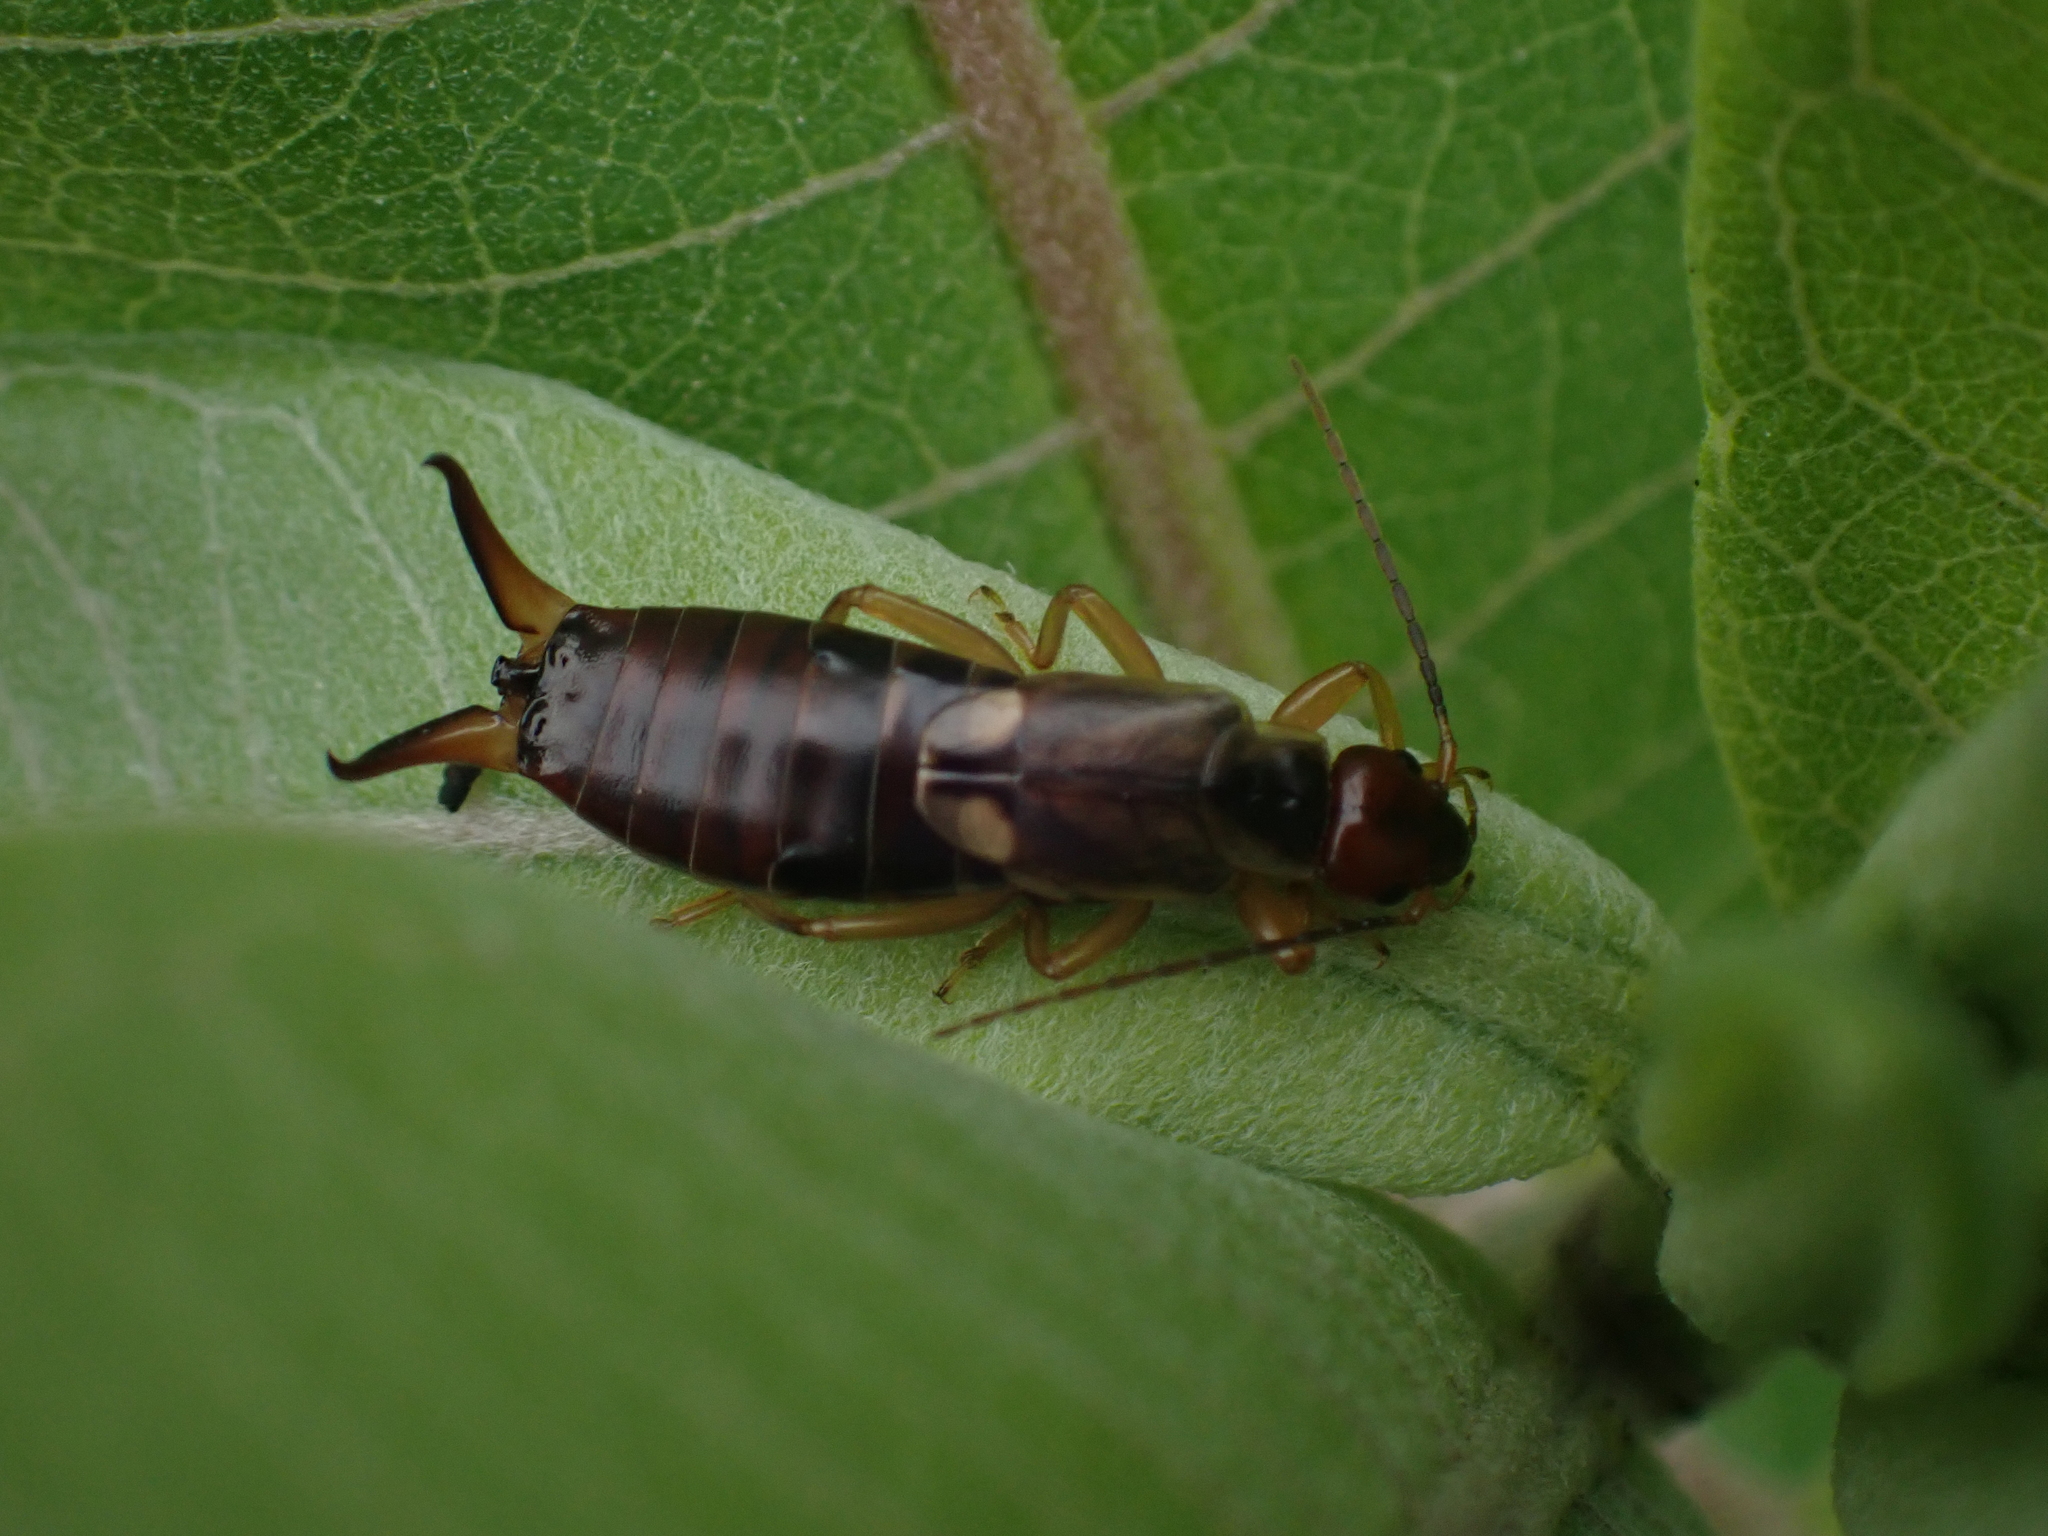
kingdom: Animalia
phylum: Arthropoda
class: Insecta
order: Dermaptera
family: Forficulidae
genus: Forficula
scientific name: Forficula
